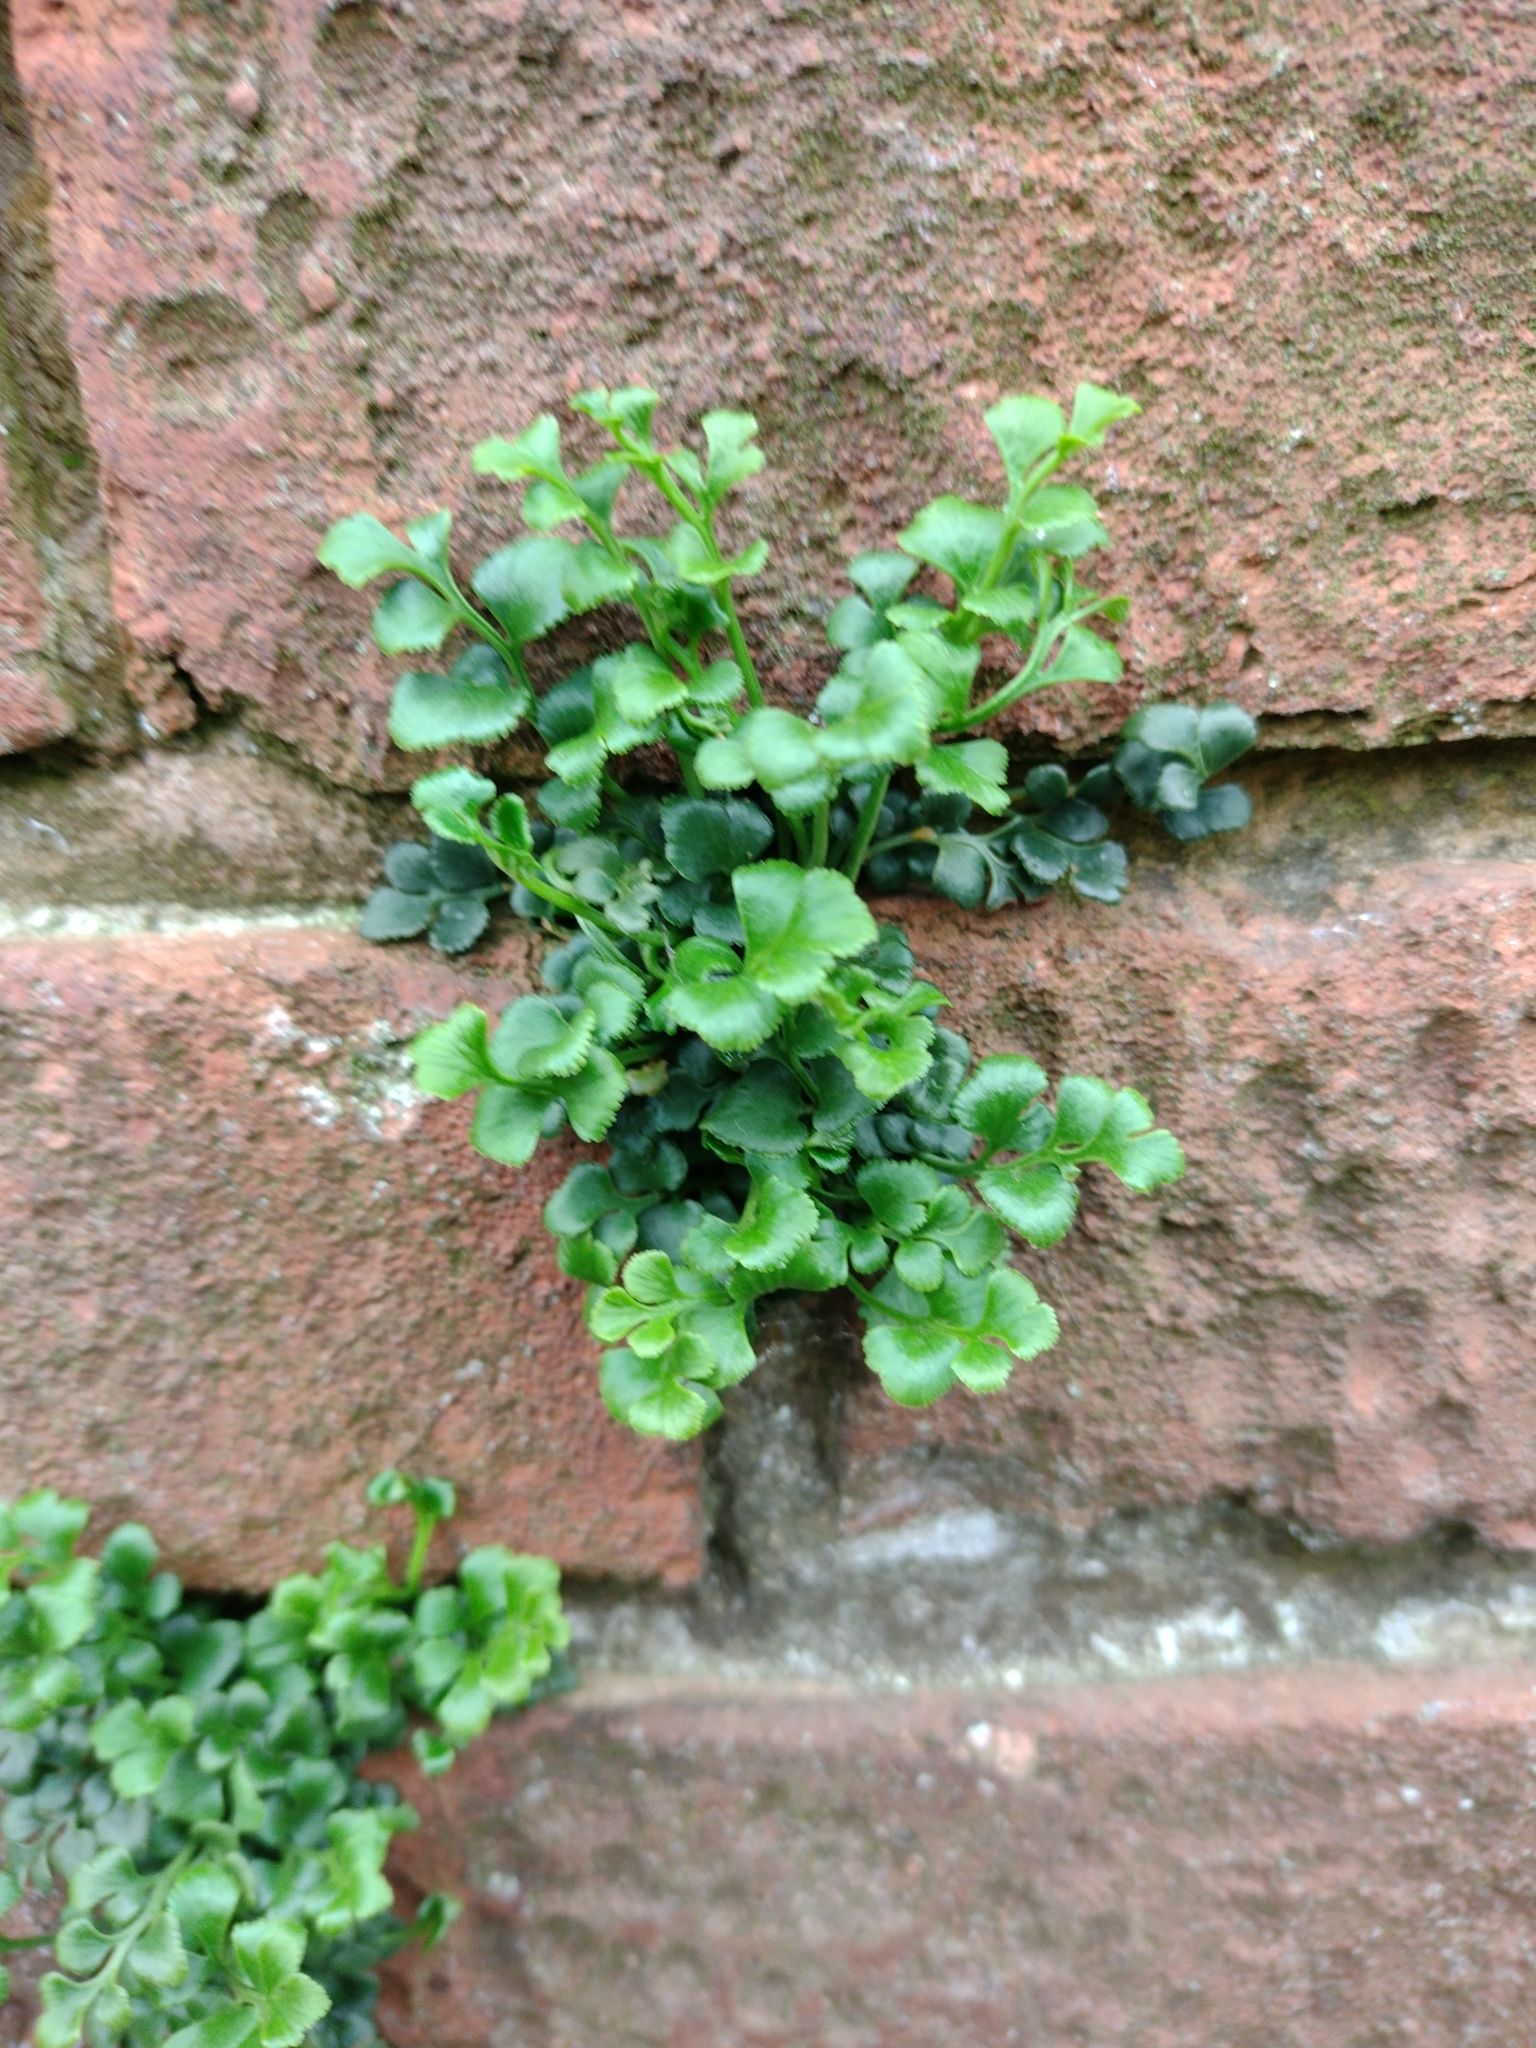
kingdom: Plantae
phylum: Tracheophyta
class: Polypodiopsida
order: Polypodiales
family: Aspleniaceae
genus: Asplenium
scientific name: Asplenium ruta-muraria
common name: Wall-rue
